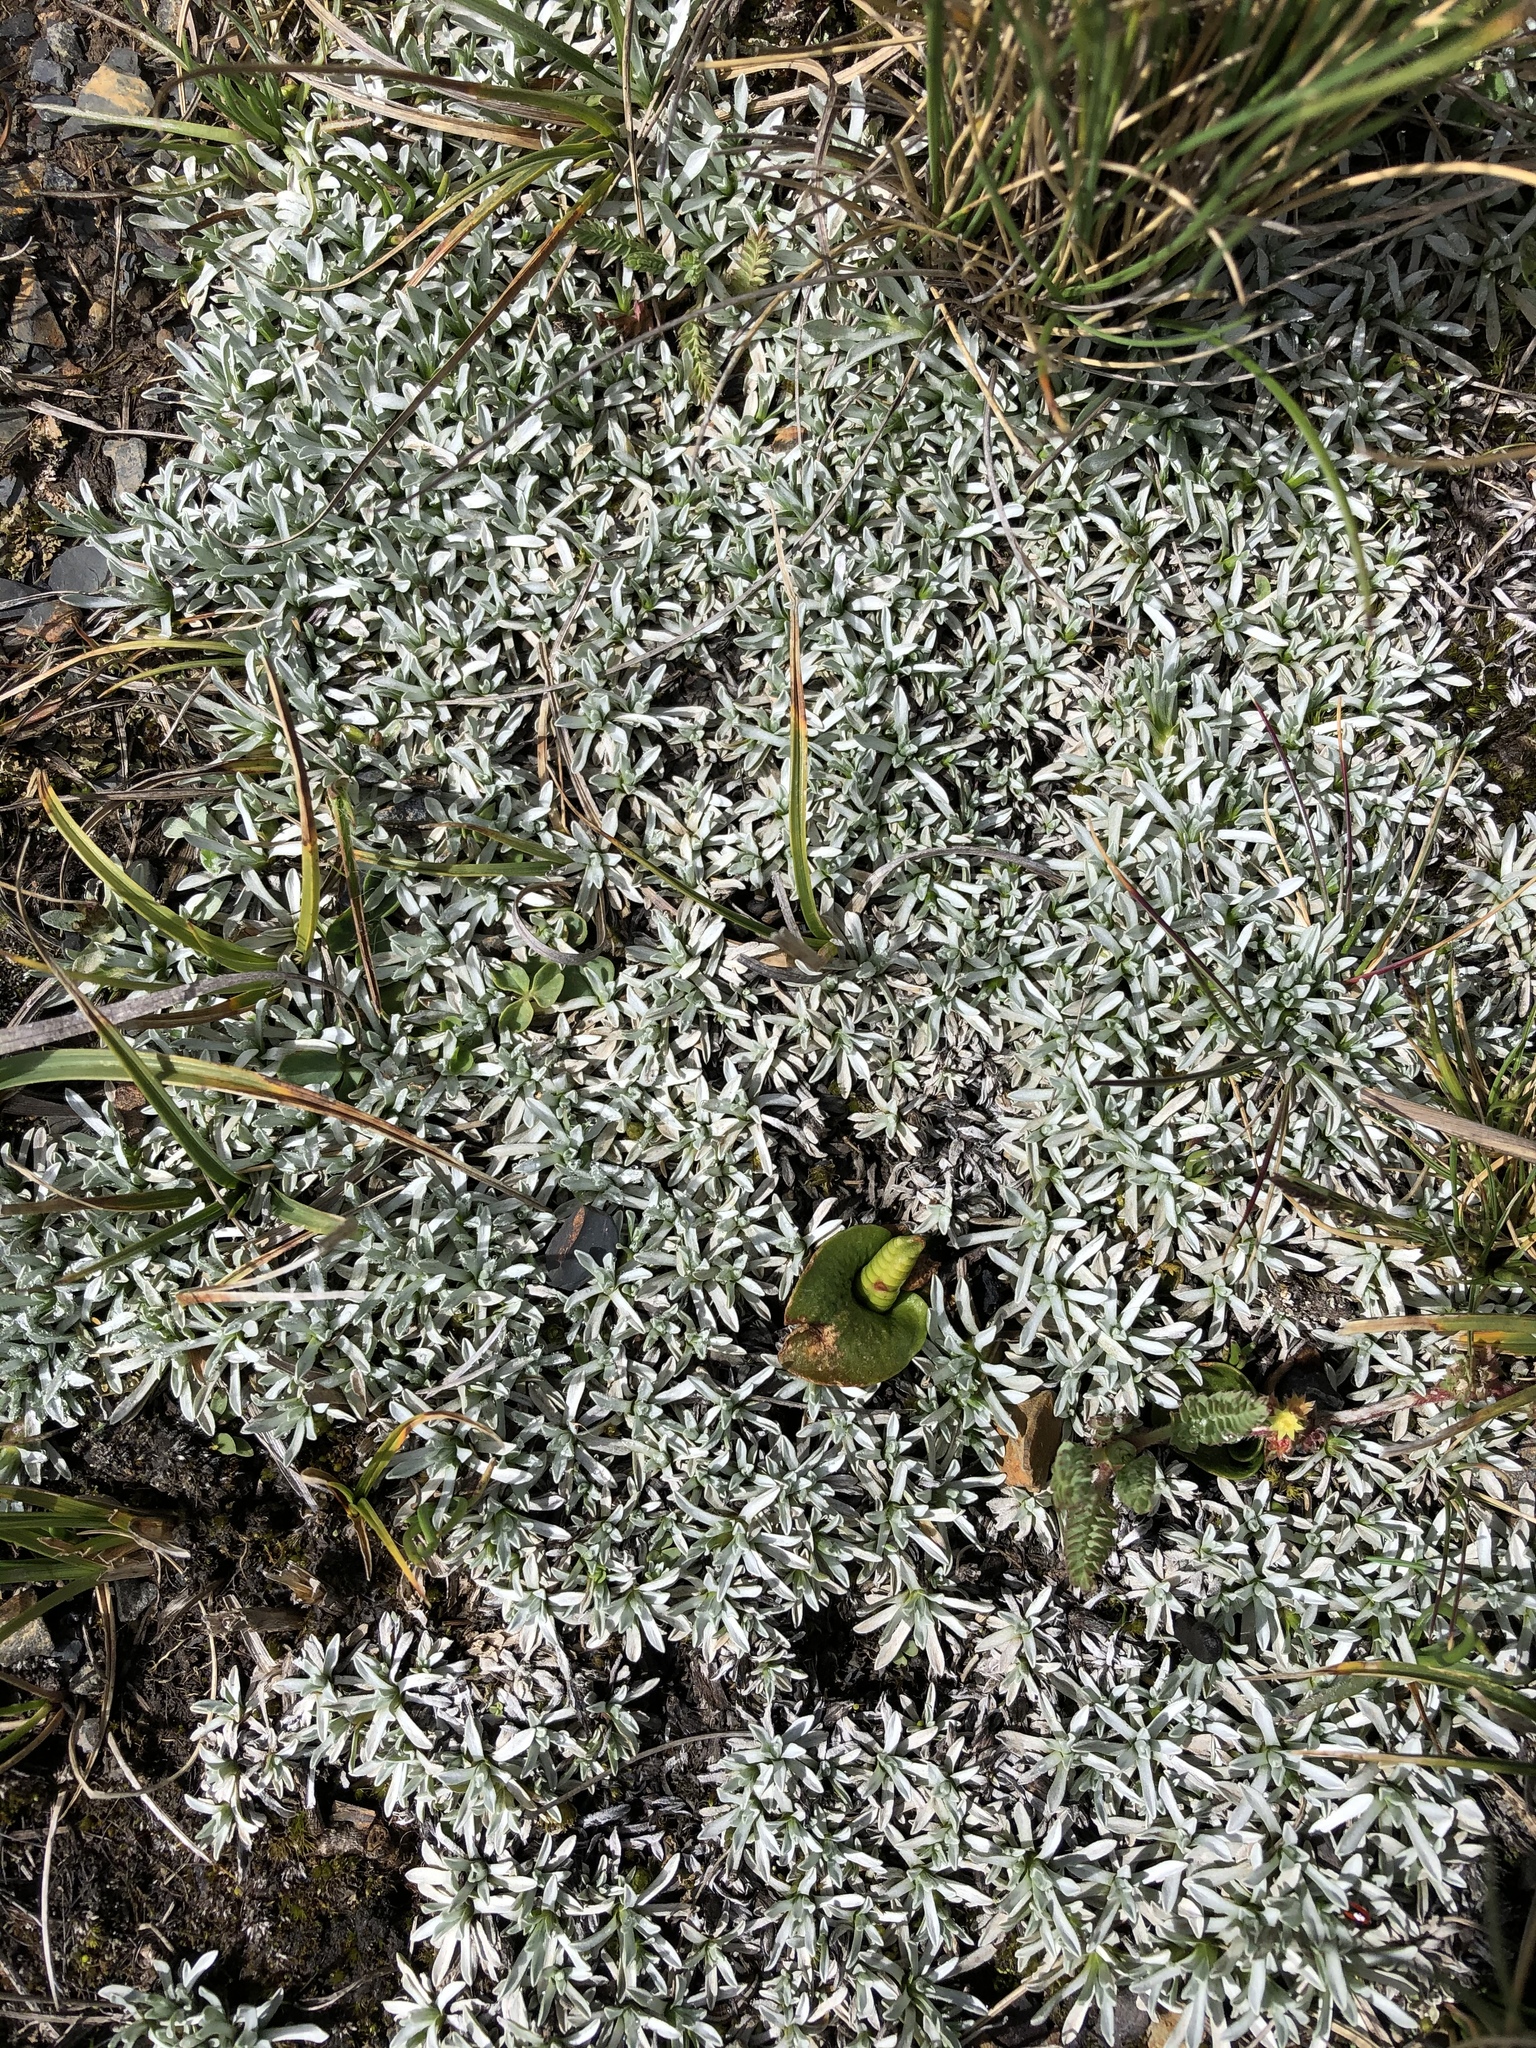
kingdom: Plantae
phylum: Tracheophyta
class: Magnoliopsida
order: Asterales
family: Asteraceae
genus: Mniodes
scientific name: Mniodes kunthiana
